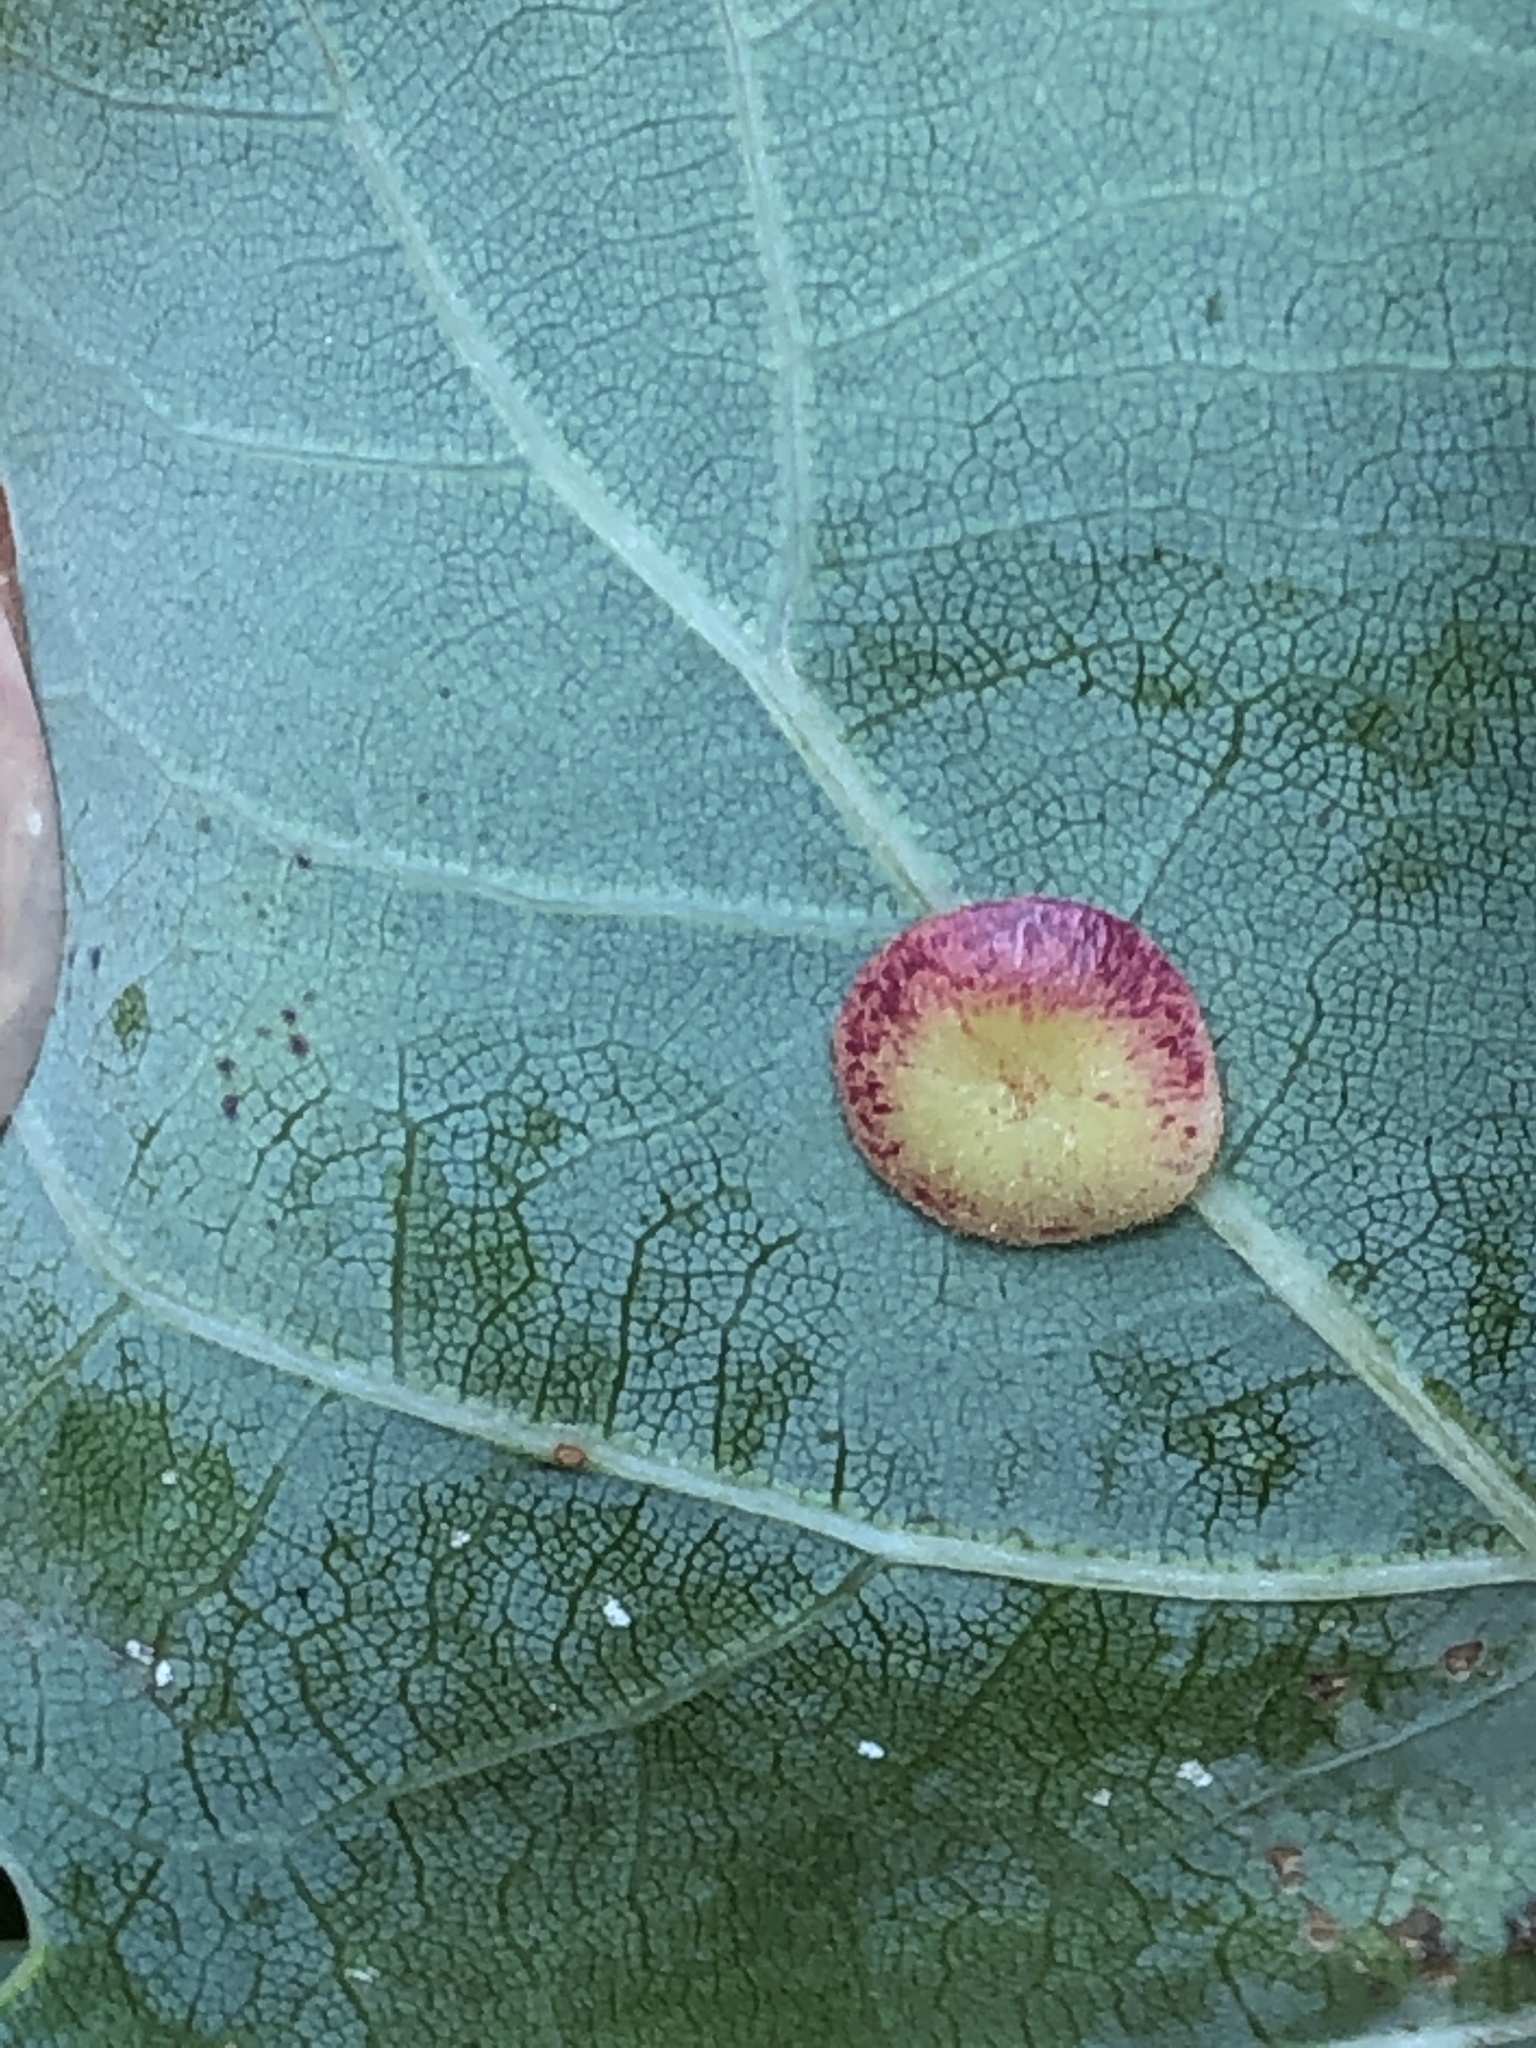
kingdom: Animalia
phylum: Arthropoda
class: Insecta
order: Hymenoptera
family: Cynipidae
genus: Neuroterus
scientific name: Neuroterus quercusbaccarum
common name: Common spangle gall
